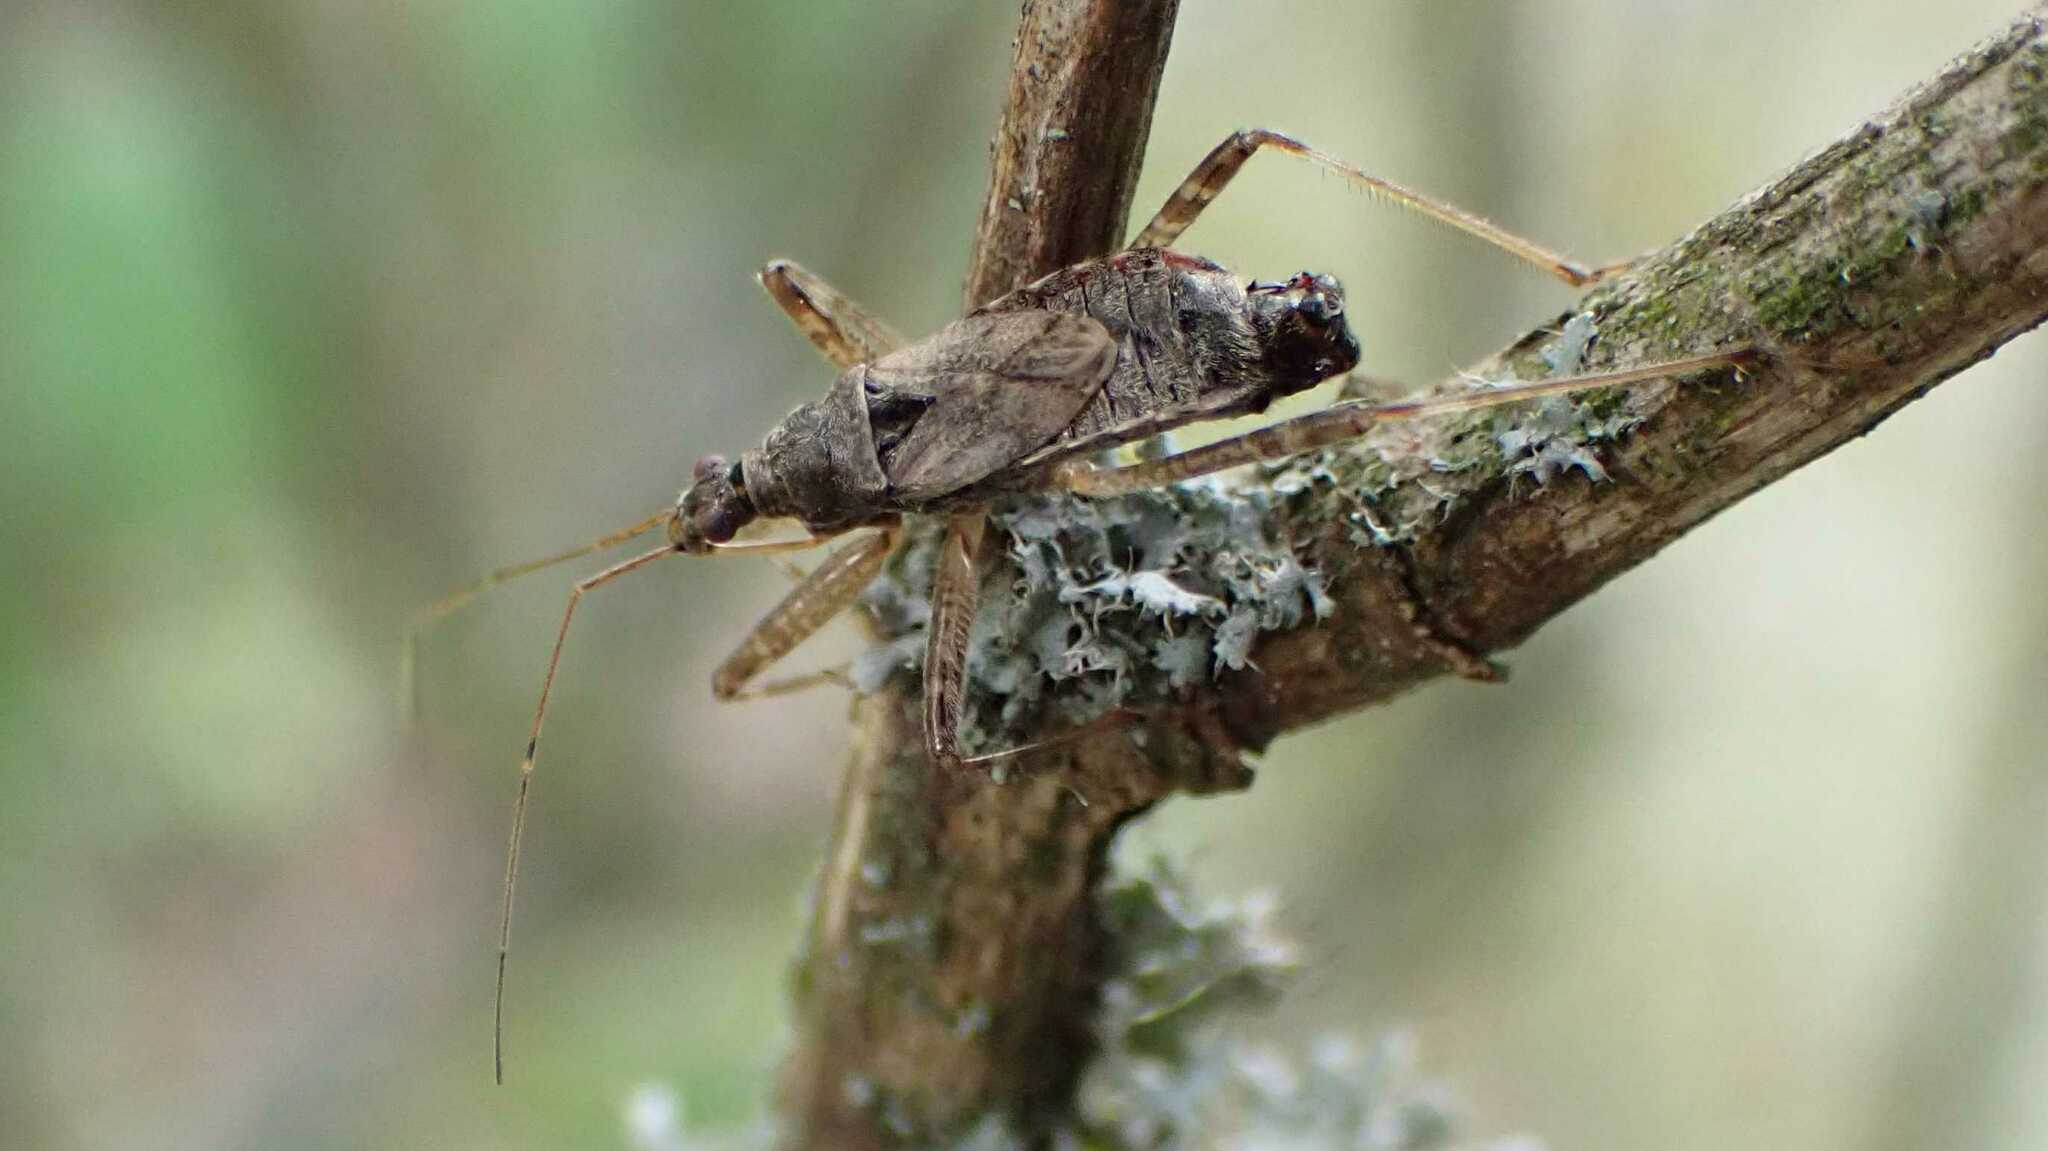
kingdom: Animalia
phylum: Arthropoda
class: Insecta
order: Hemiptera
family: Nabidae
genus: Himacerus
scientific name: Himacerus apterus
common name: Tree damsel bug
